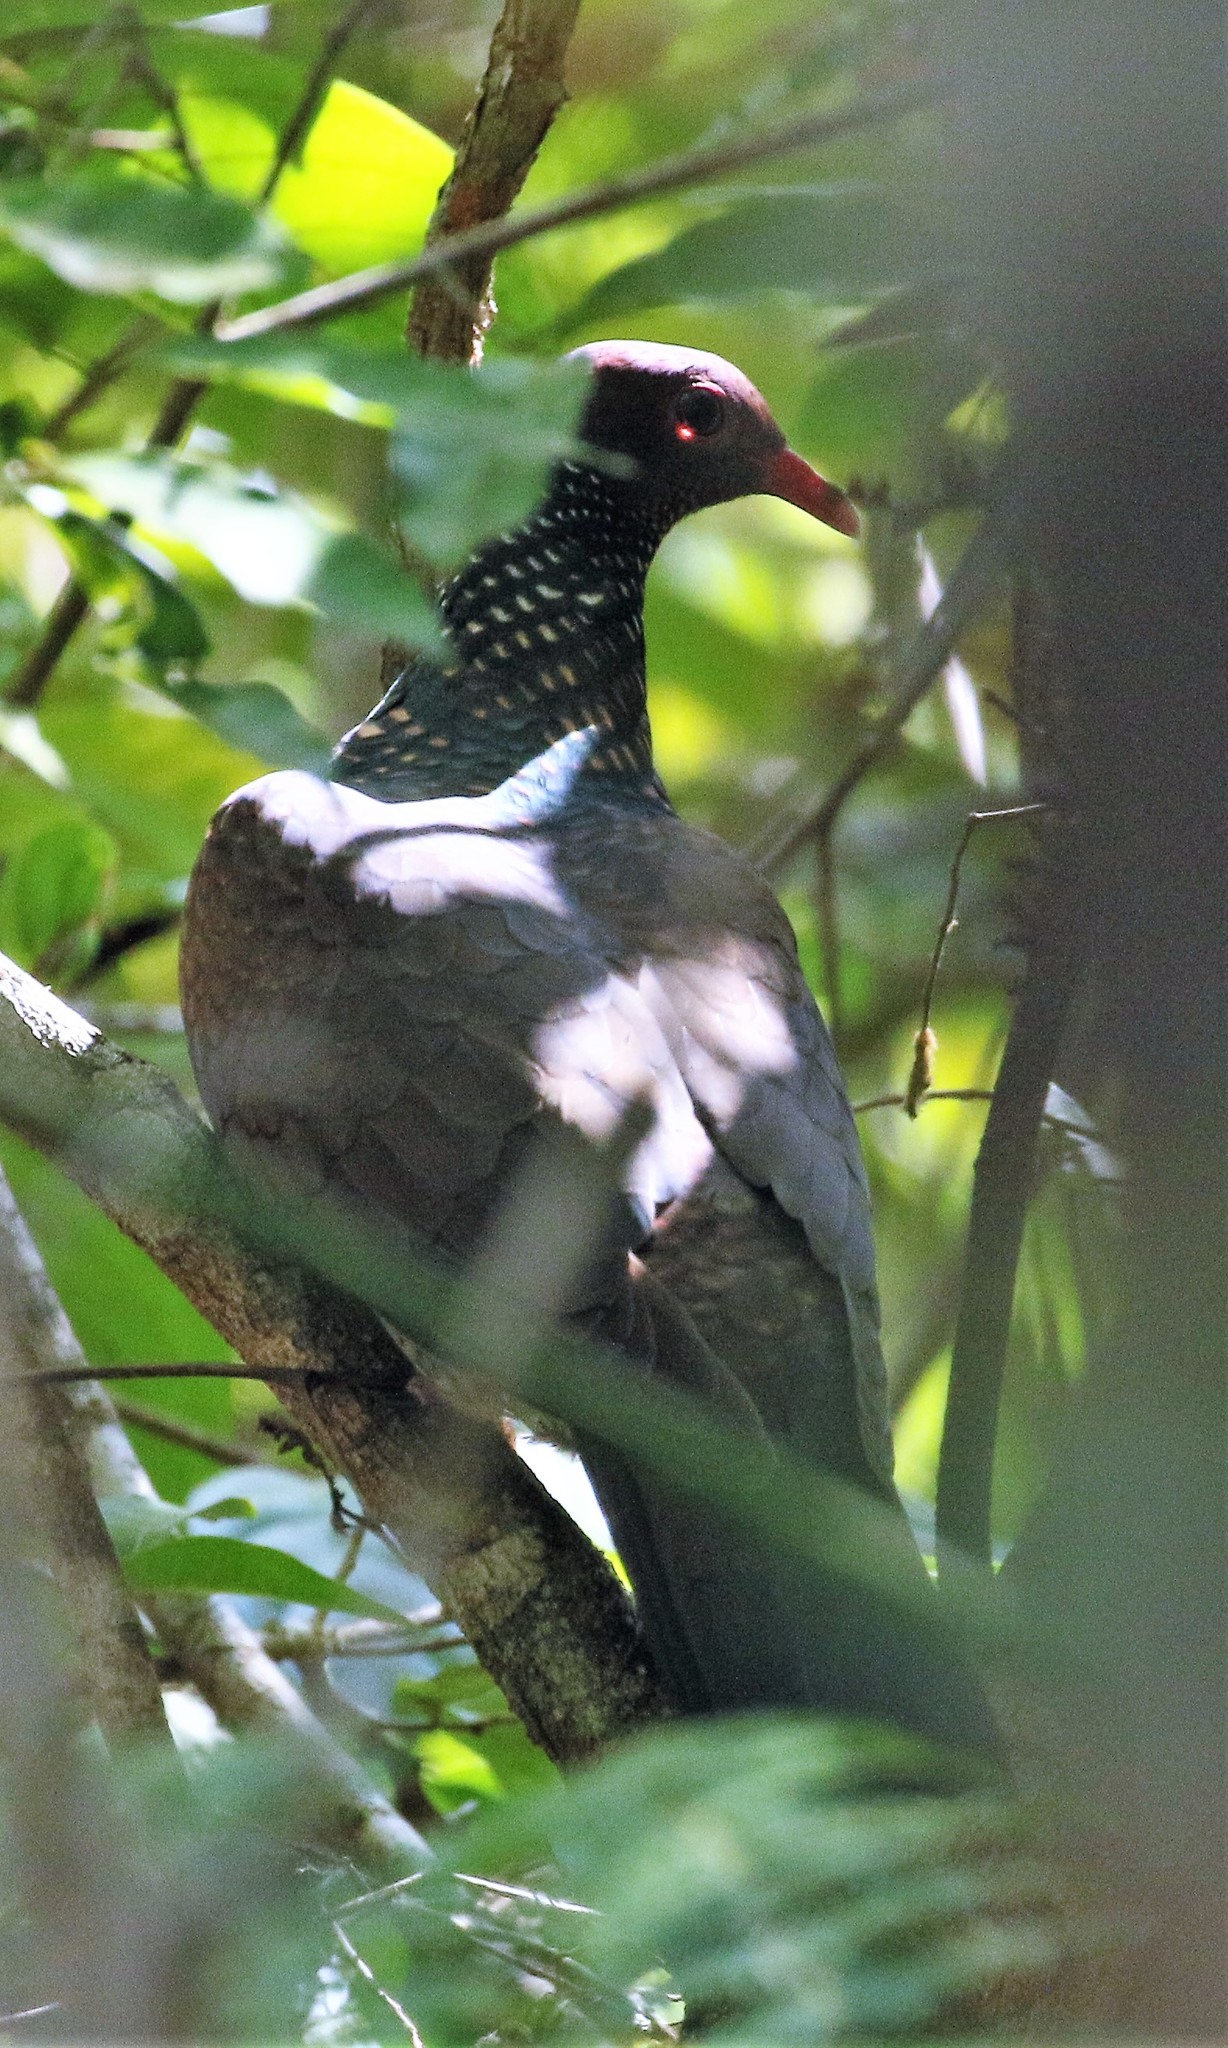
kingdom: Animalia
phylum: Chordata
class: Aves
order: Columbiformes
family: Columbidae
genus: Patagioenas
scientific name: Patagioenas speciosa
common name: Scaled pigeon
